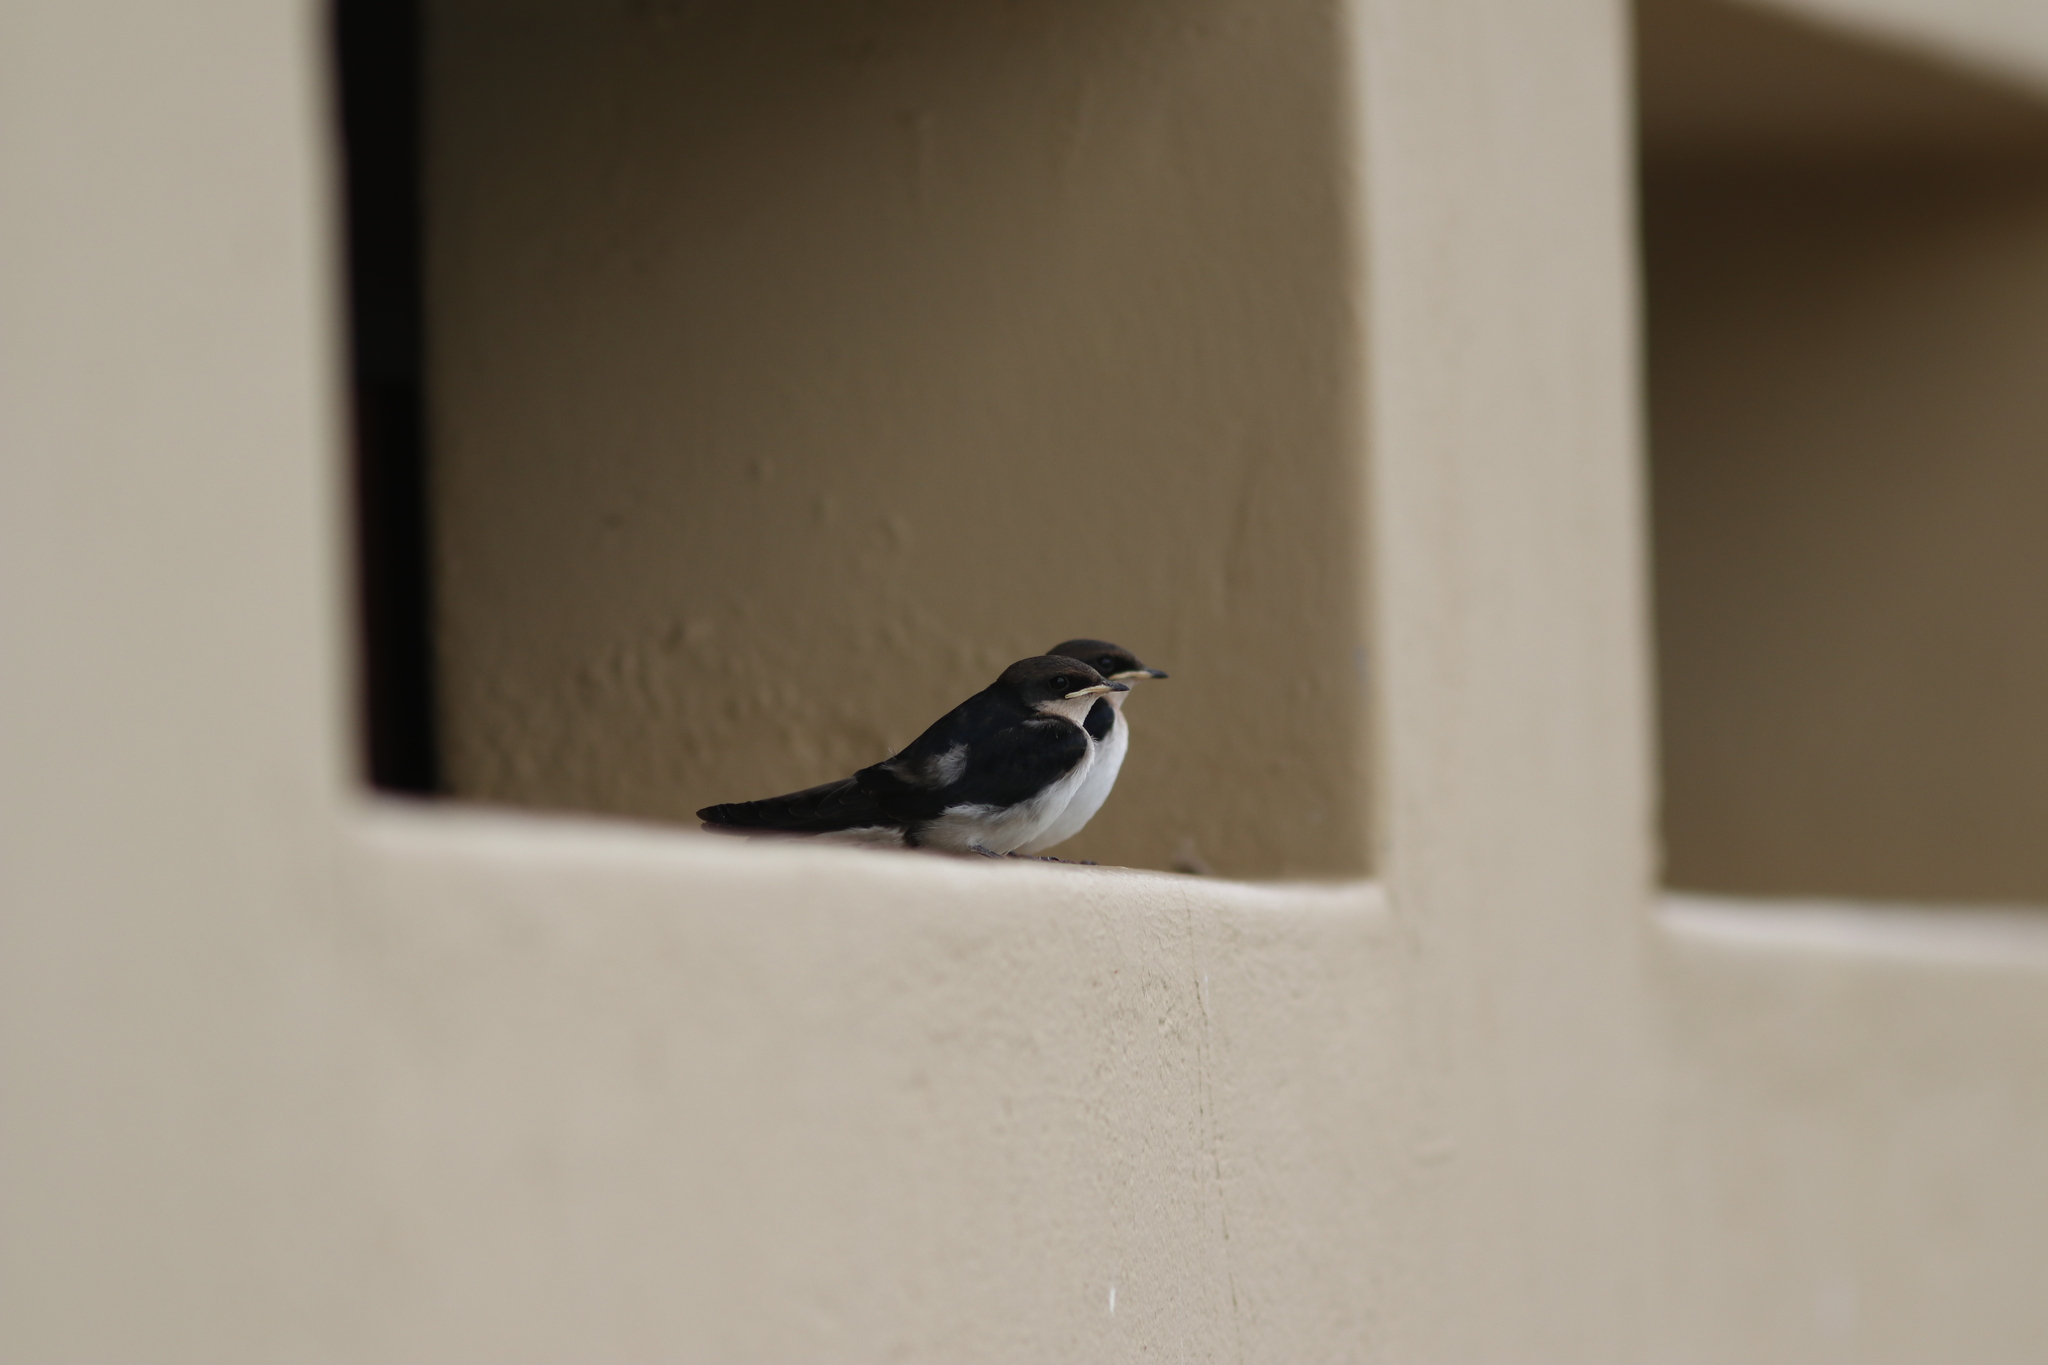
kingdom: Animalia
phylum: Chordata
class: Aves
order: Passeriformes
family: Hirundinidae
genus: Hirundo
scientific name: Hirundo smithii
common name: Wire-tailed swallow
